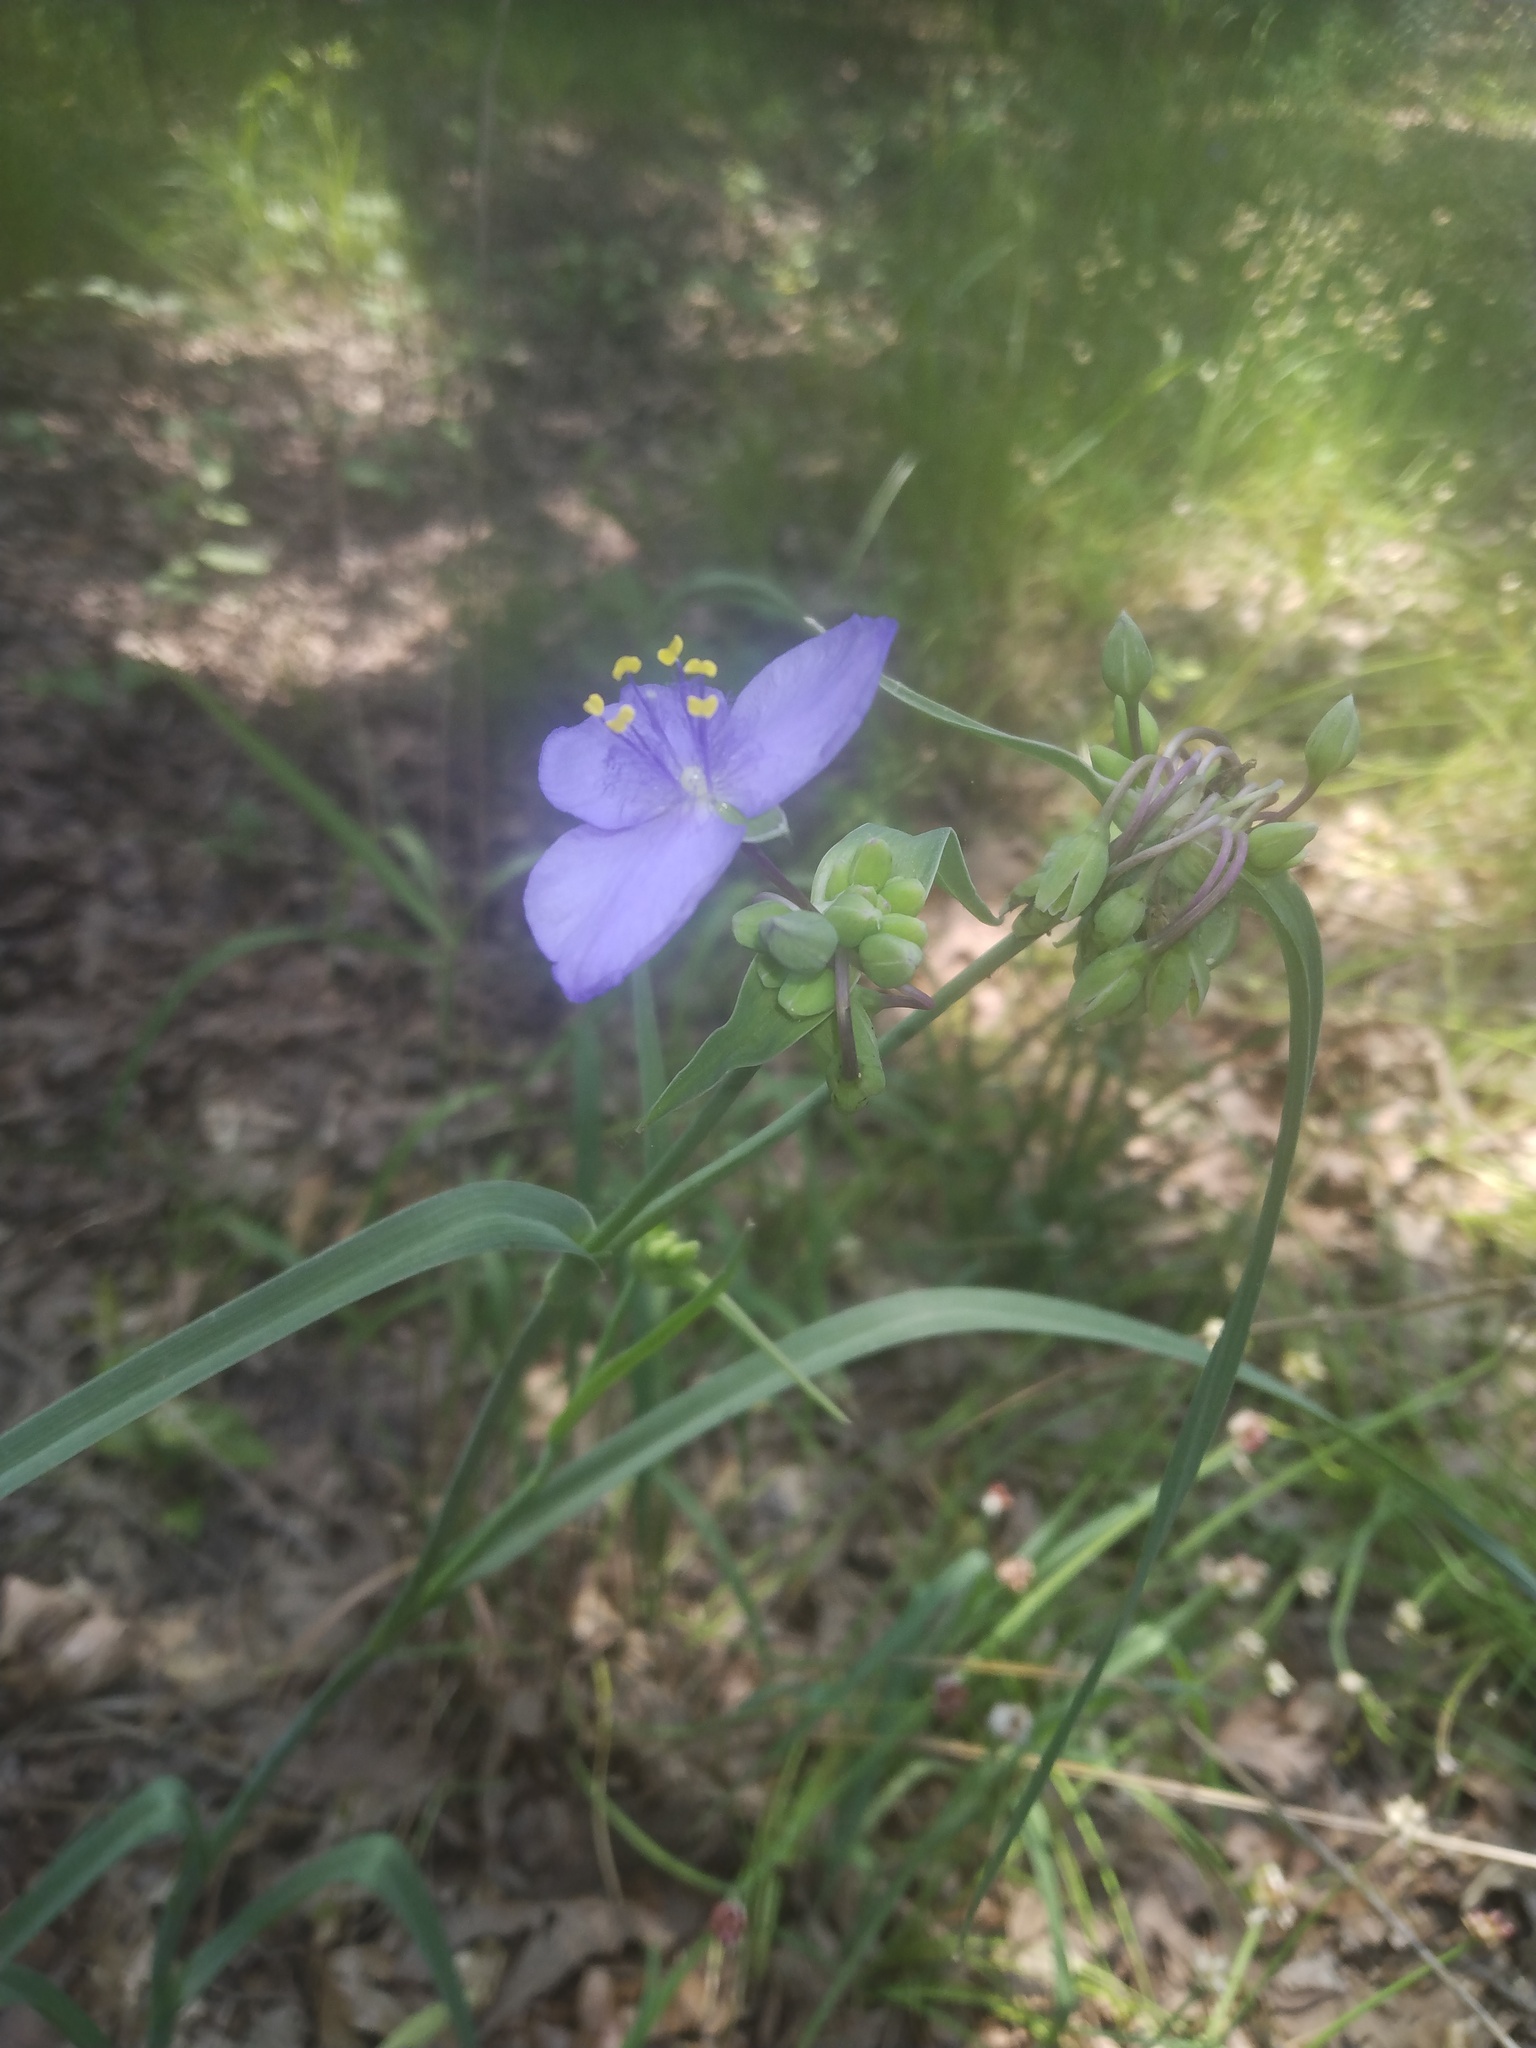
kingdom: Plantae
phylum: Tracheophyta
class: Liliopsida
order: Commelinales
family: Commelinaceae
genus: Tradescantia
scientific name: Tradescantia ohiensis
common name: Ohio spiderwort
